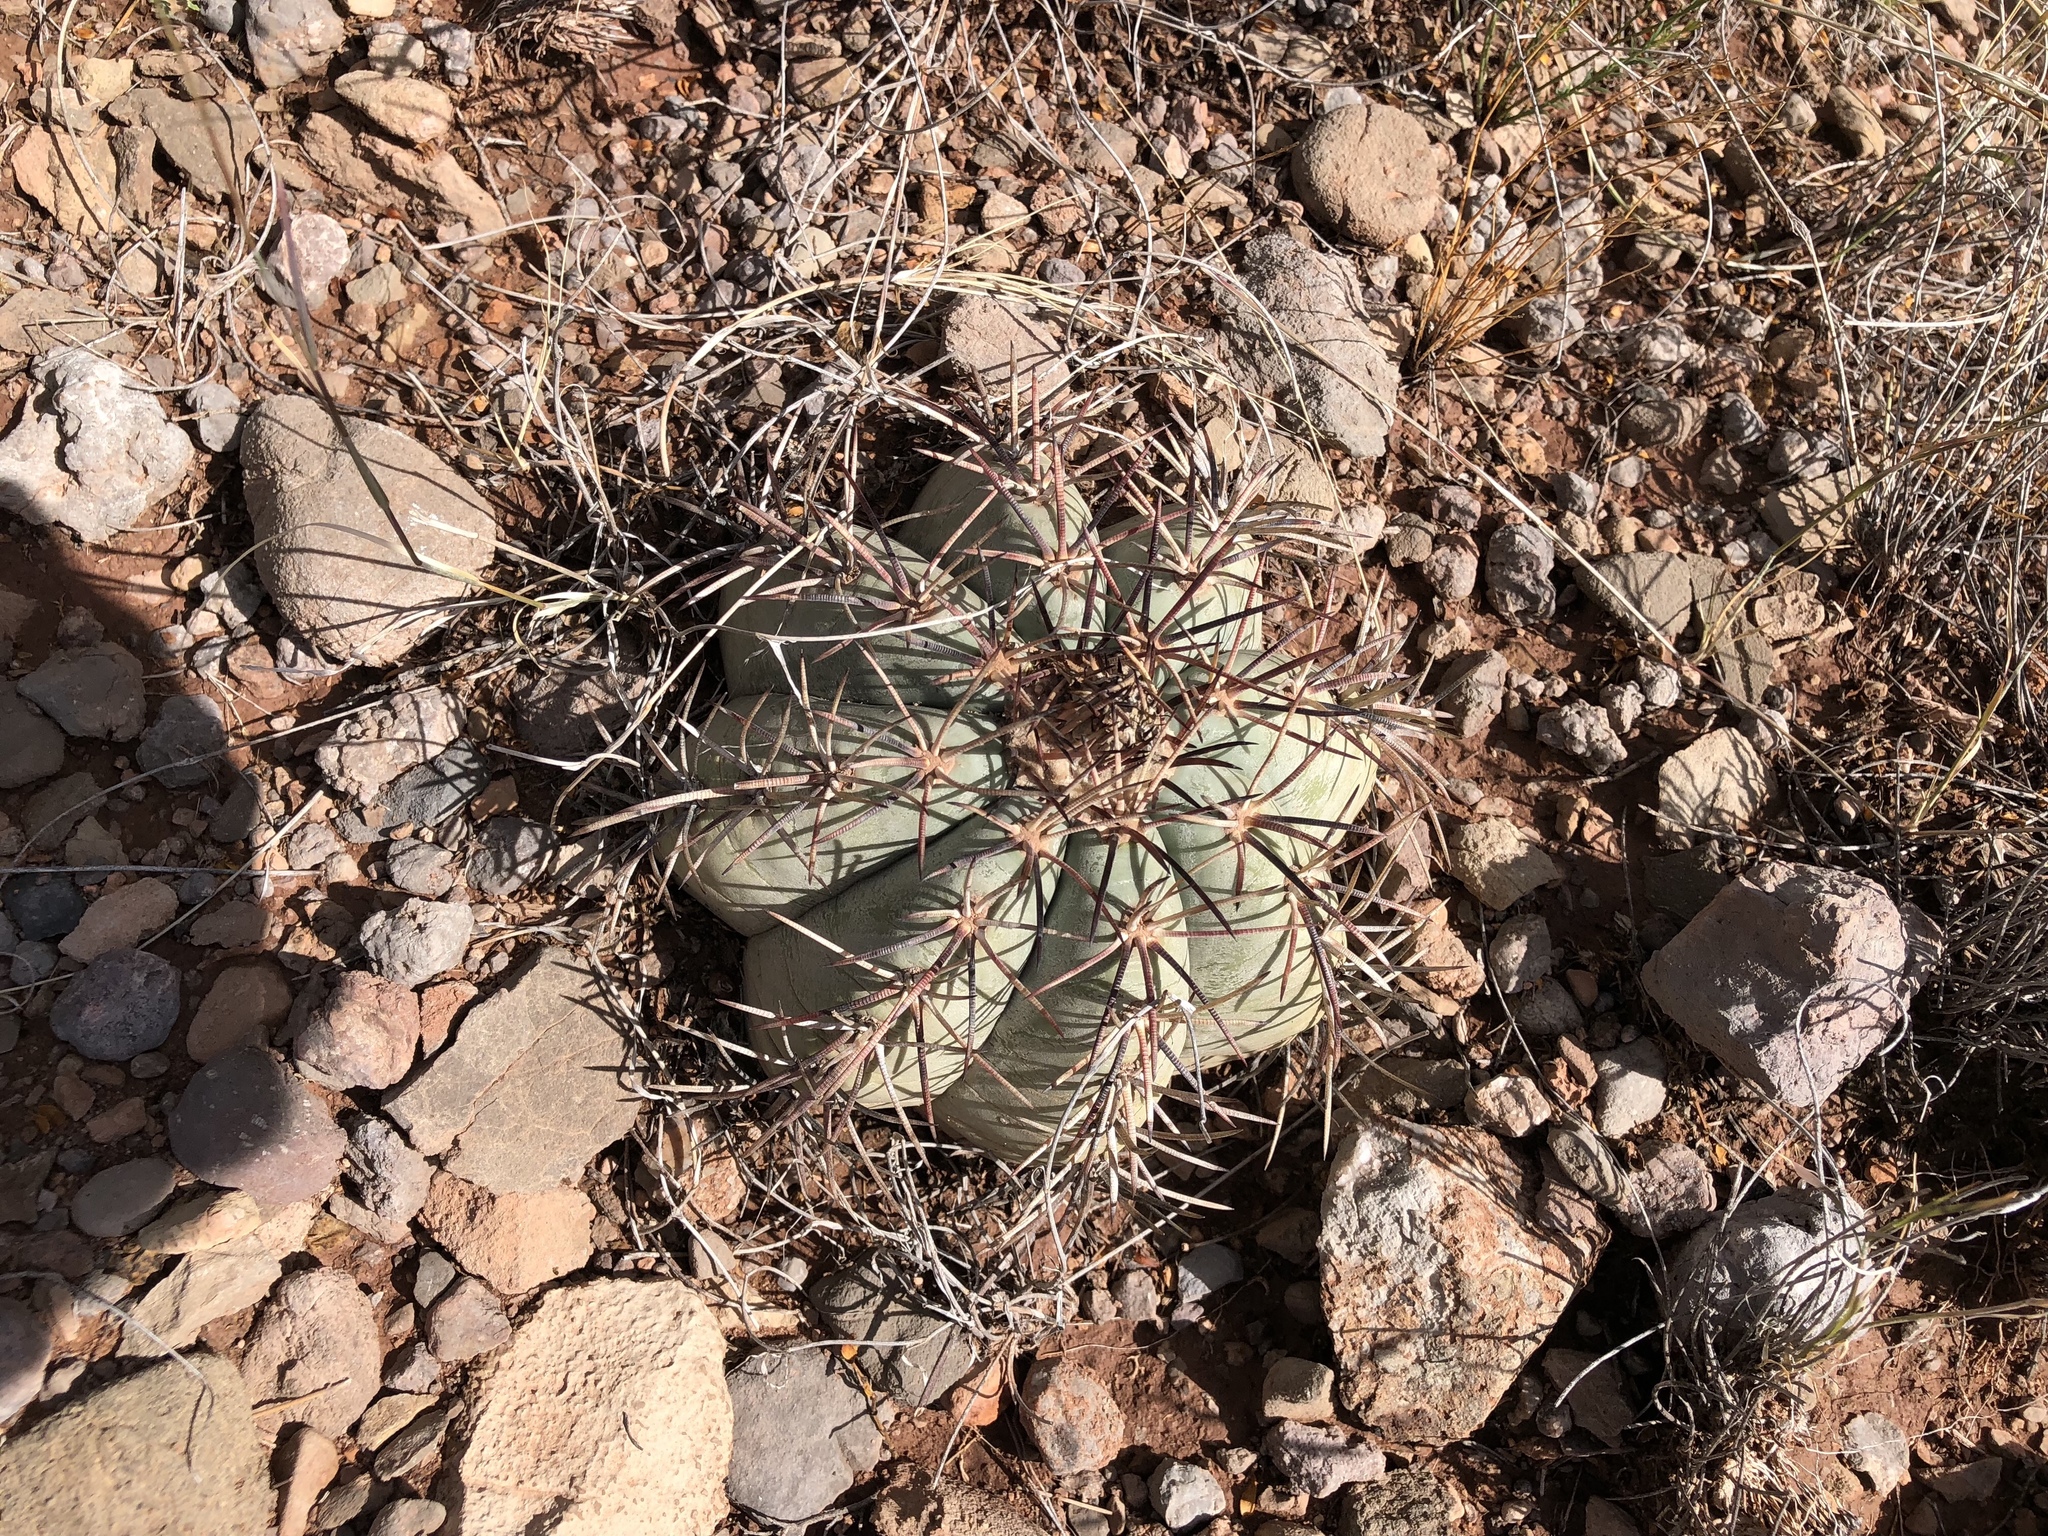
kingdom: Plantae
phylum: Tracheophyta
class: Magnoliopsida
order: Caryophyllales
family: Cactaceae
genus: Echinocactus
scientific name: Echinocactus horizonthalonius
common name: Devilshead
